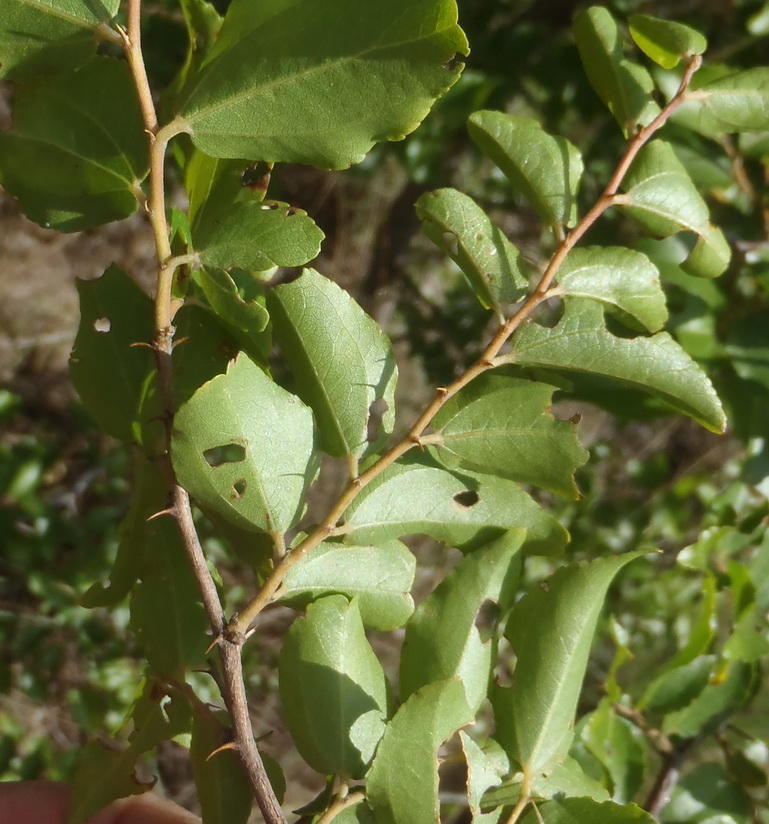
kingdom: Plantae
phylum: Tracheophyta
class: Magnoliopsida
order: Rosales
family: Rhamnaceae
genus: Ziziphus
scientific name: Ziziphus mucronata
